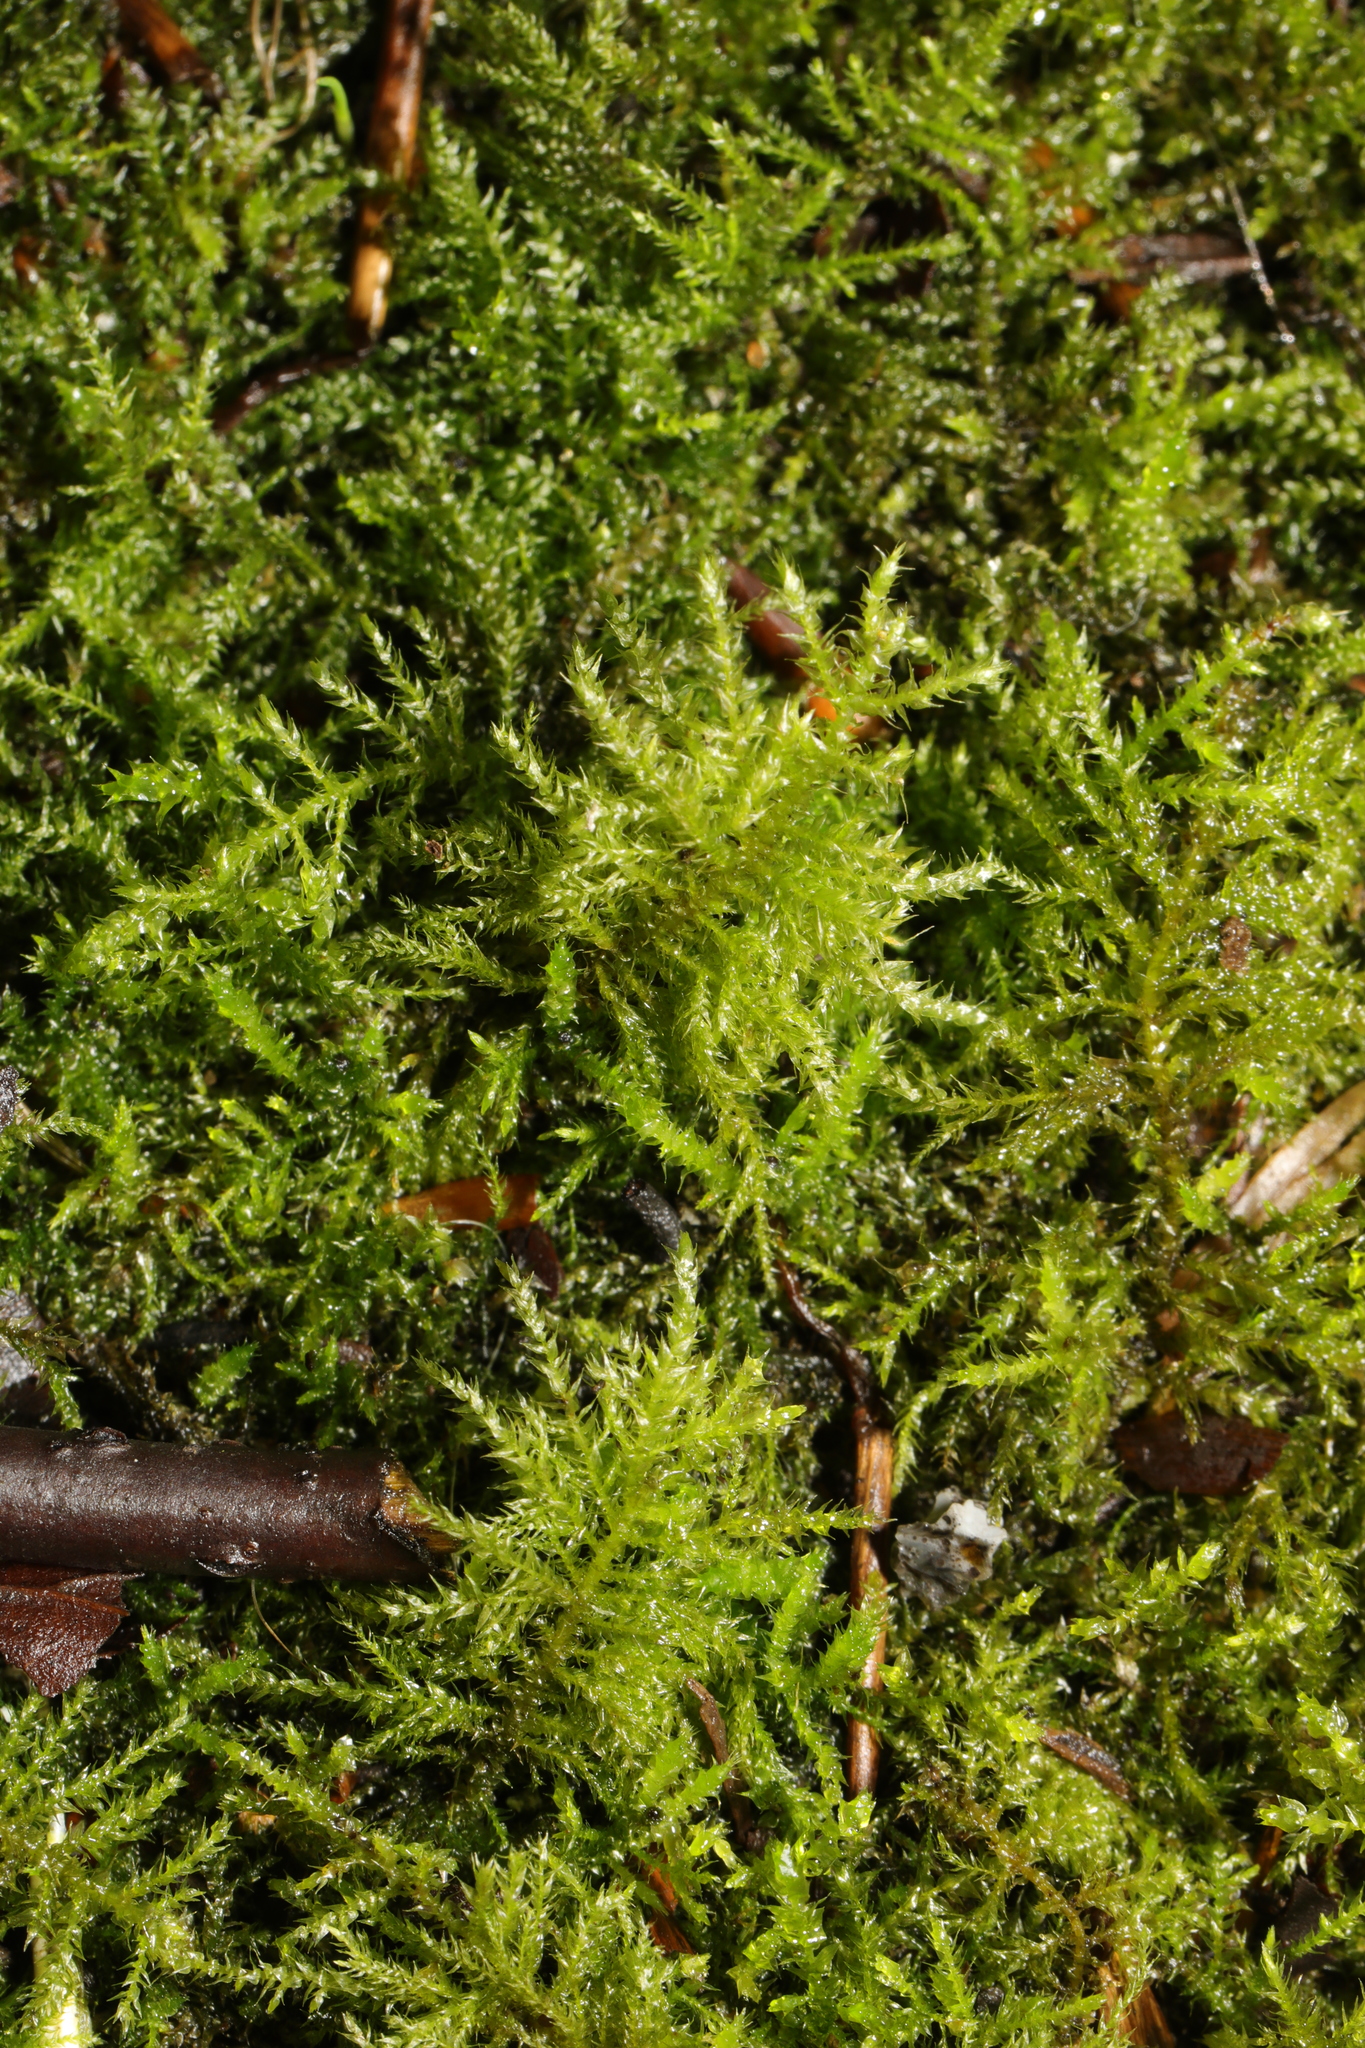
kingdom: Plantae
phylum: Bryophyta
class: Bryopsida
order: Hypnales
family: Brachytheciaceae
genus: Kindbergia
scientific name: Kindbergia praelonga
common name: Slender beaked moss
